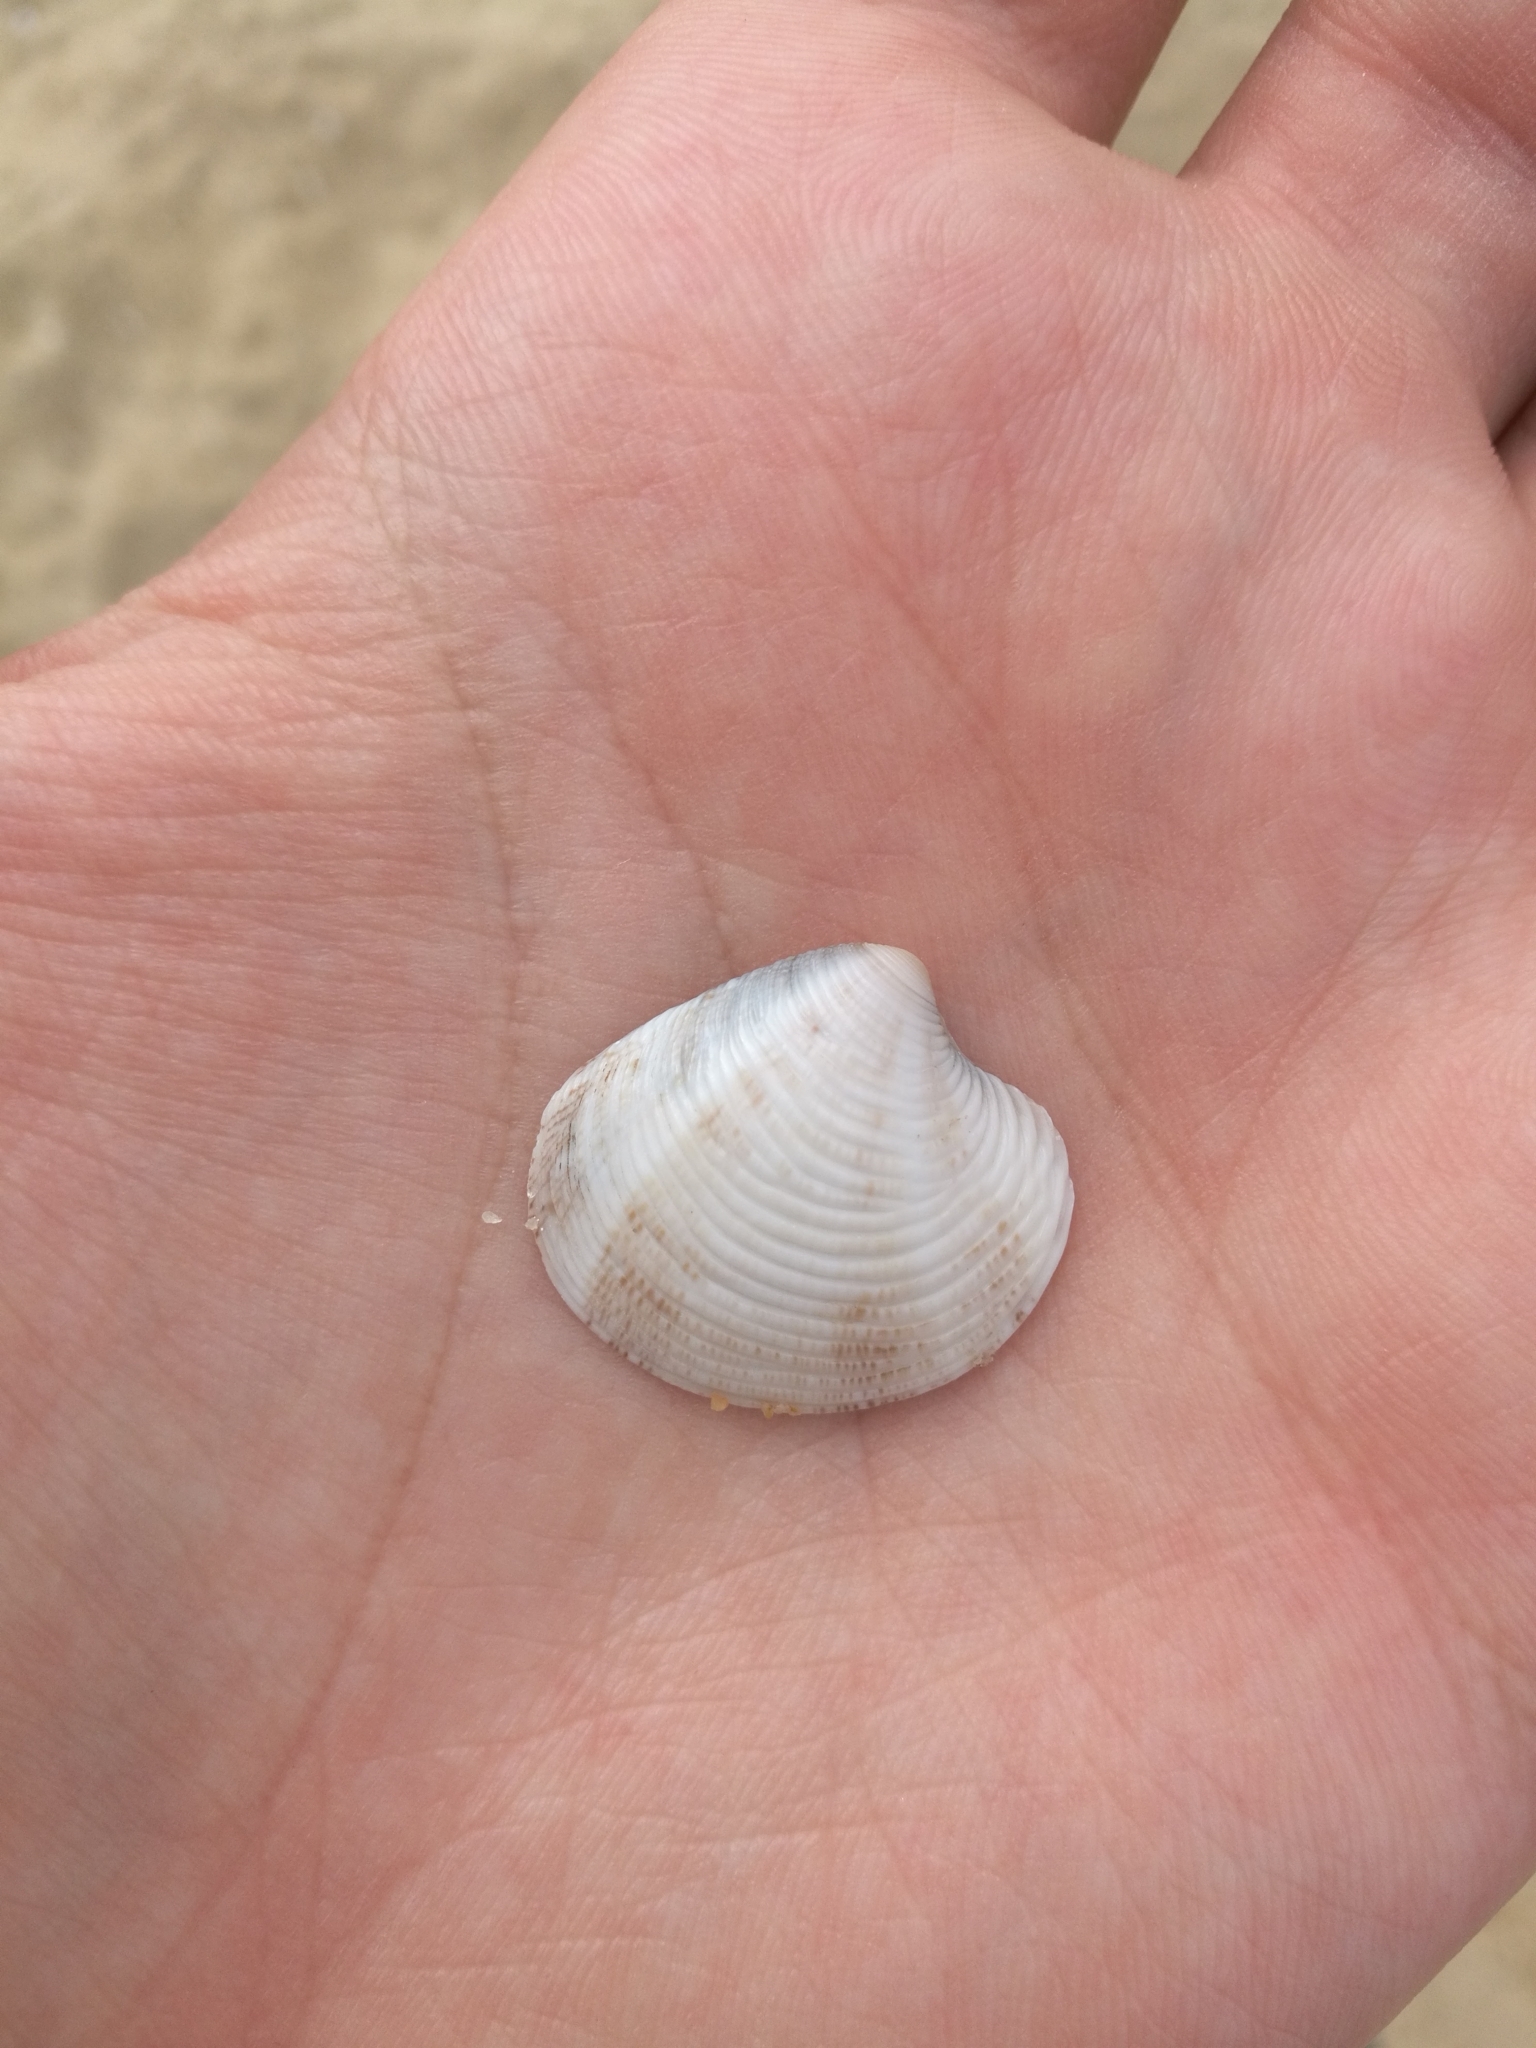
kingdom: Animalia
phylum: Mollusca
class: Bivalvia
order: Venerida
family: Veneridae
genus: Chamelea
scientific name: Chamelea gallina
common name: Chicken venus
